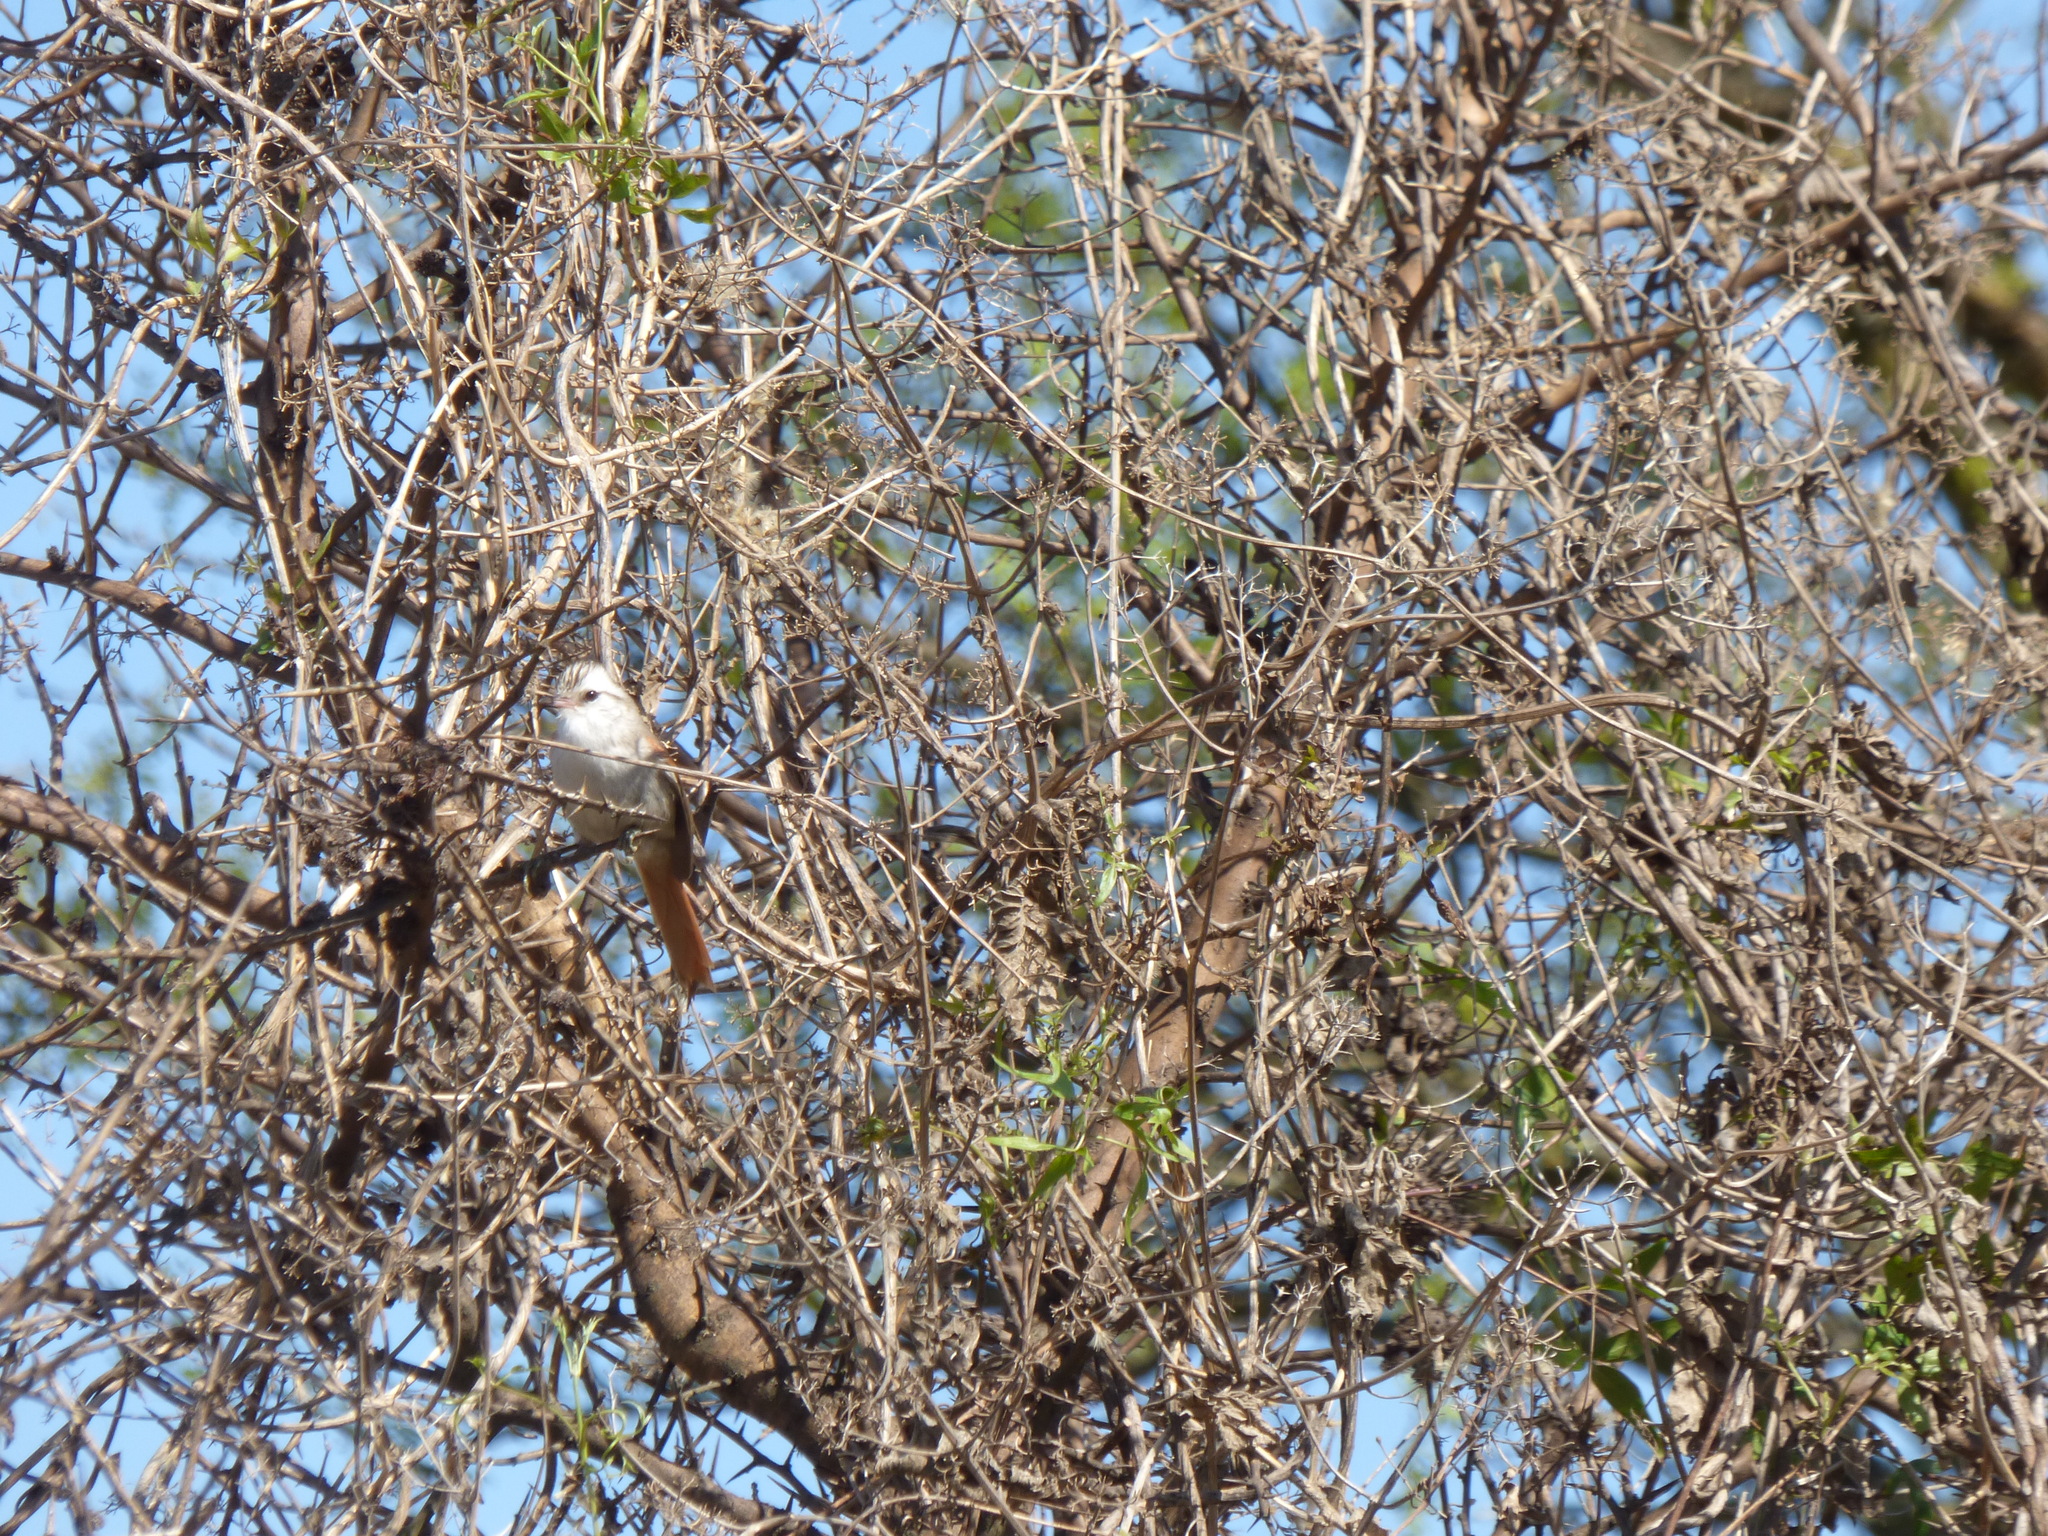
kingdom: Animalia
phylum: Chordata
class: Aves
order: Passeriformes
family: Furnariidae
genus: Cranioleuca
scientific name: Cranioleuca pyrrhophia
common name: Stripe-crowned spinetail
